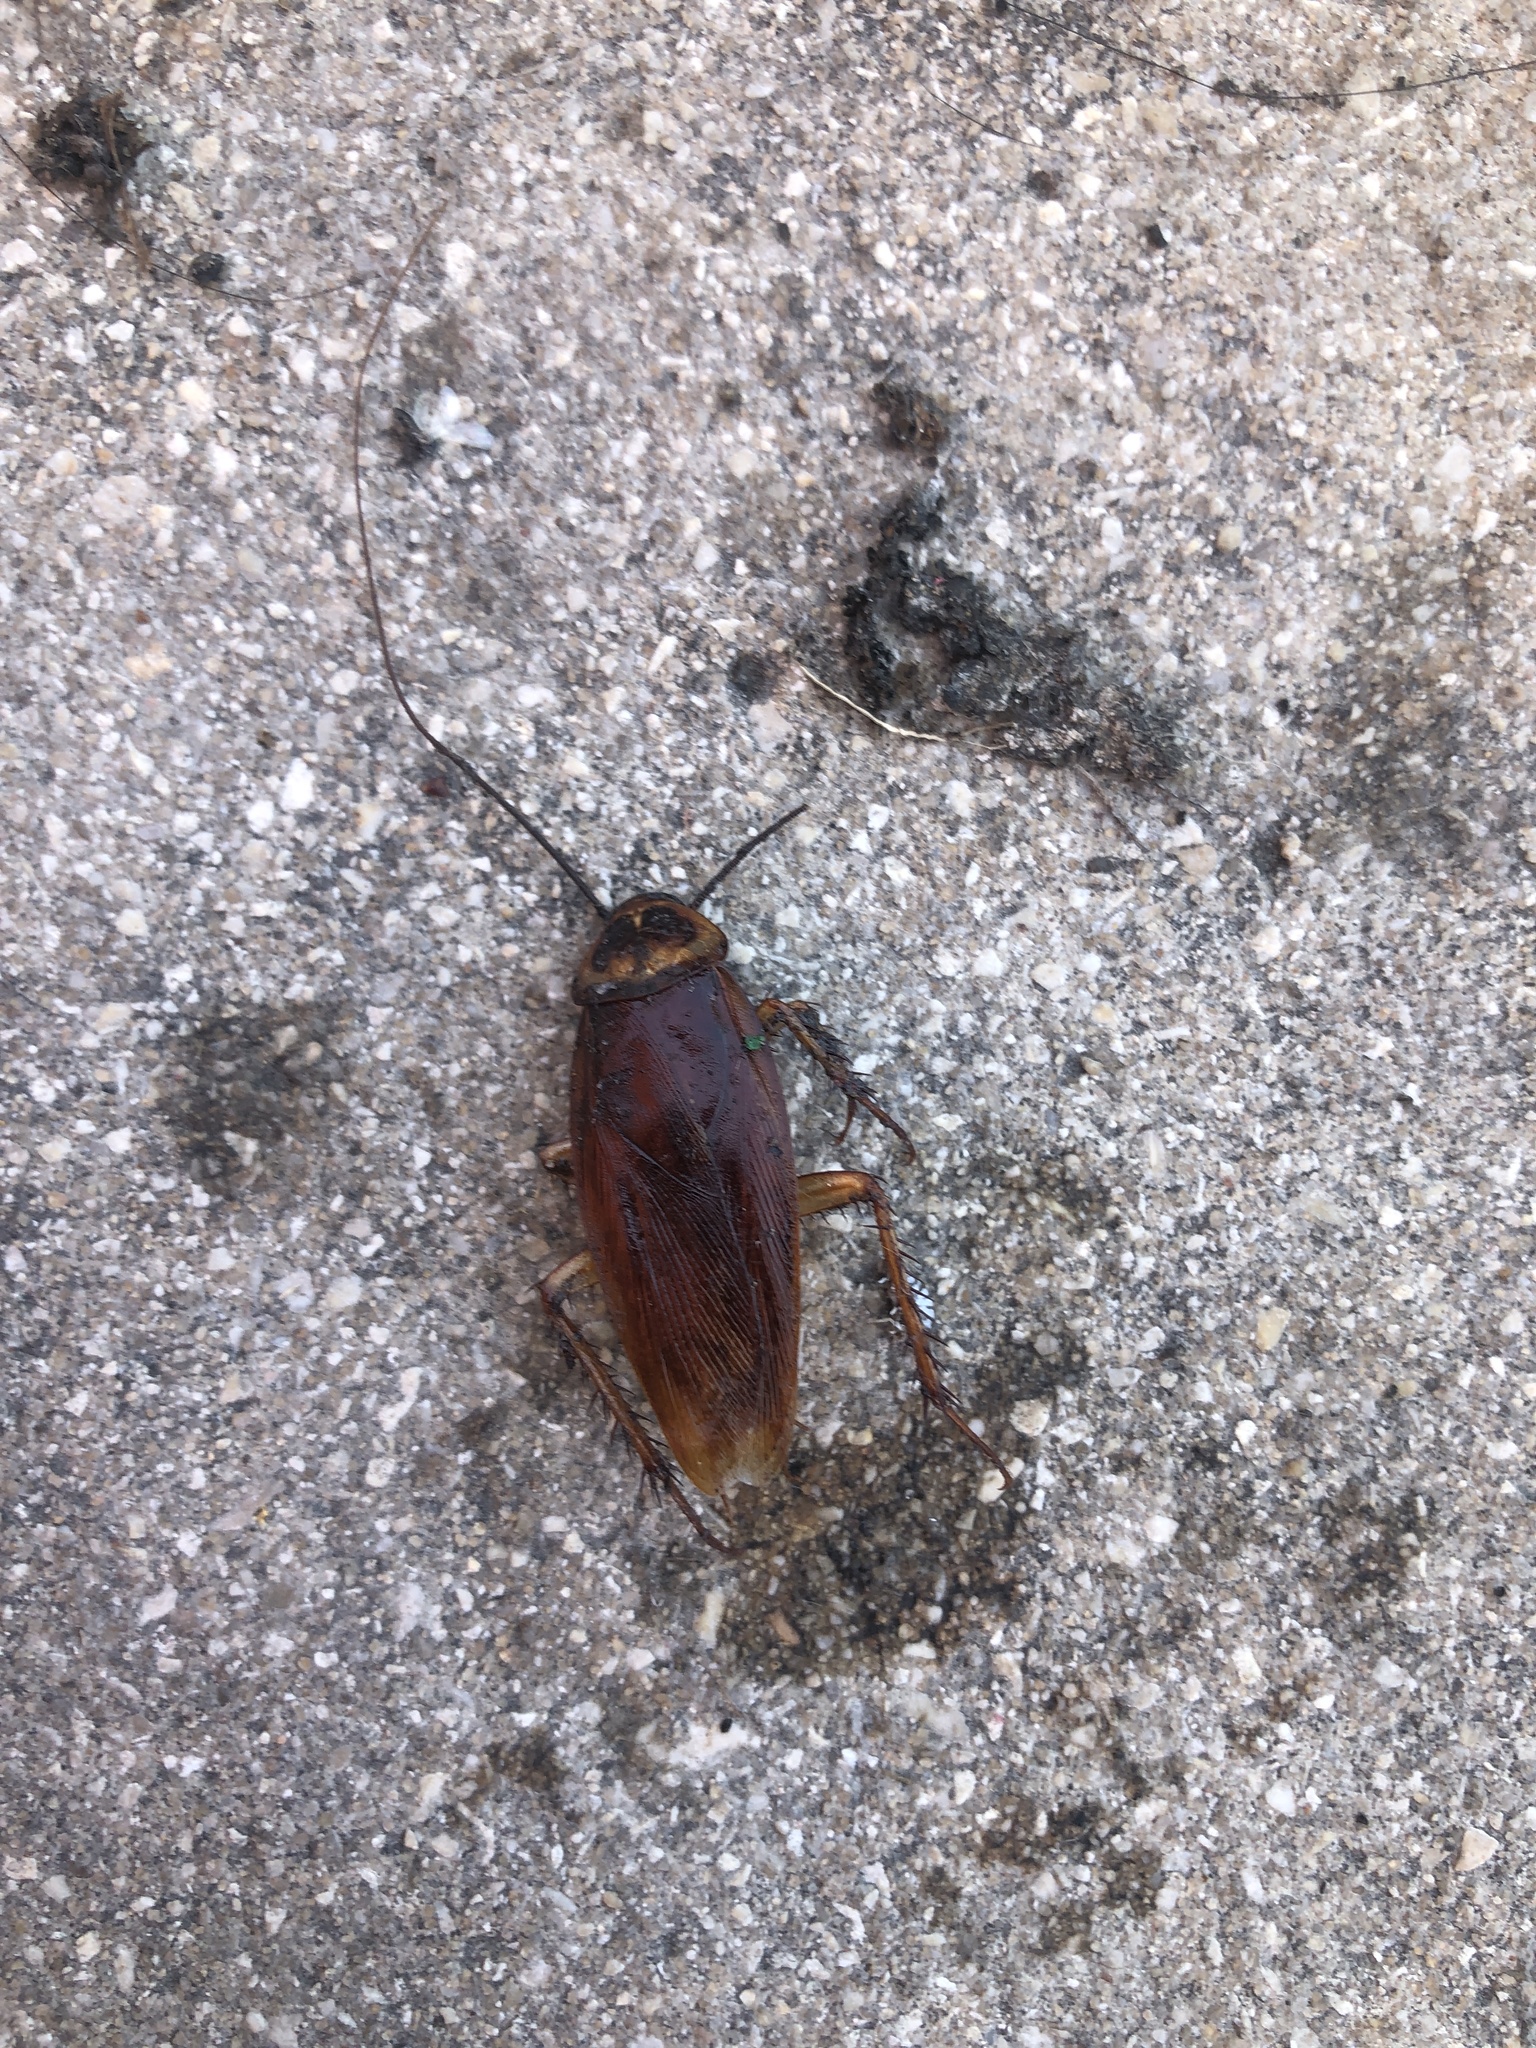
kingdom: Animalia
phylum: Arthropoda
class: Insecta
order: Blattodea
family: Blattidae
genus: Periplaneta
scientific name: Periplaneta americana
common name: American cockroach
